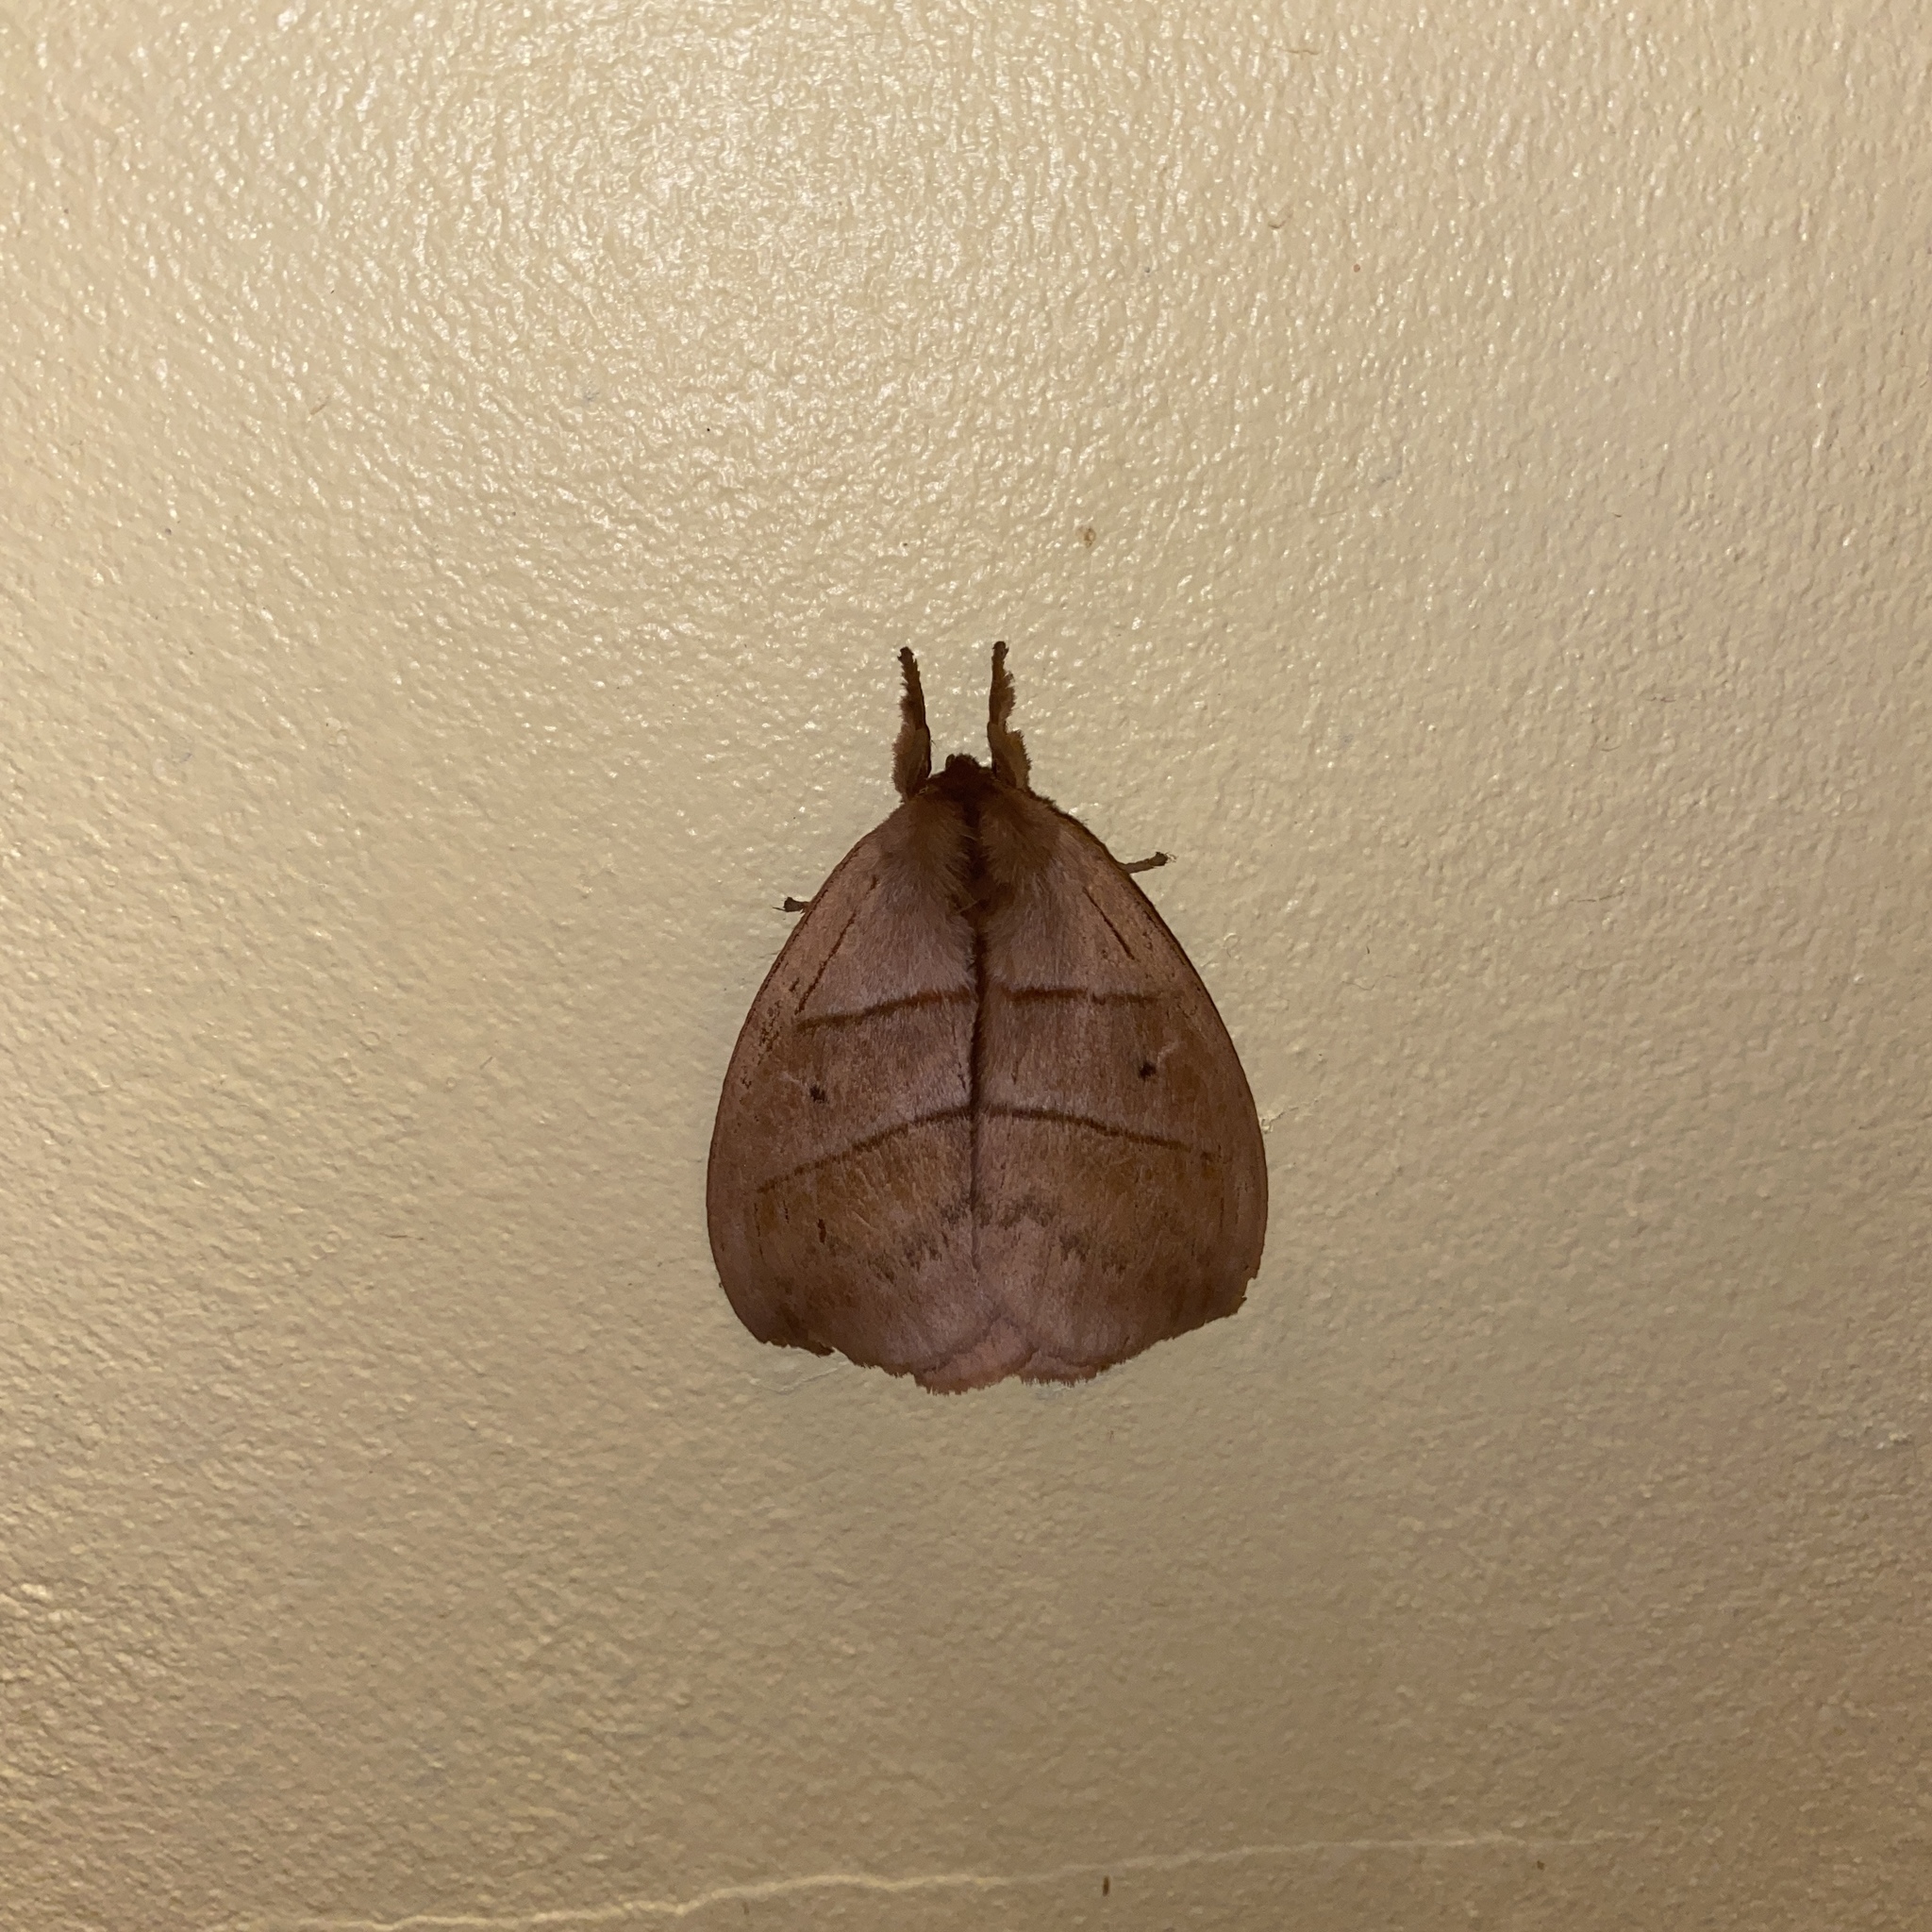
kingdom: Animalia
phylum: Arthropoda
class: Insecta
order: Lepidoptera
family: Saturniidae
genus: Periphoba
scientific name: Periphoba augur
